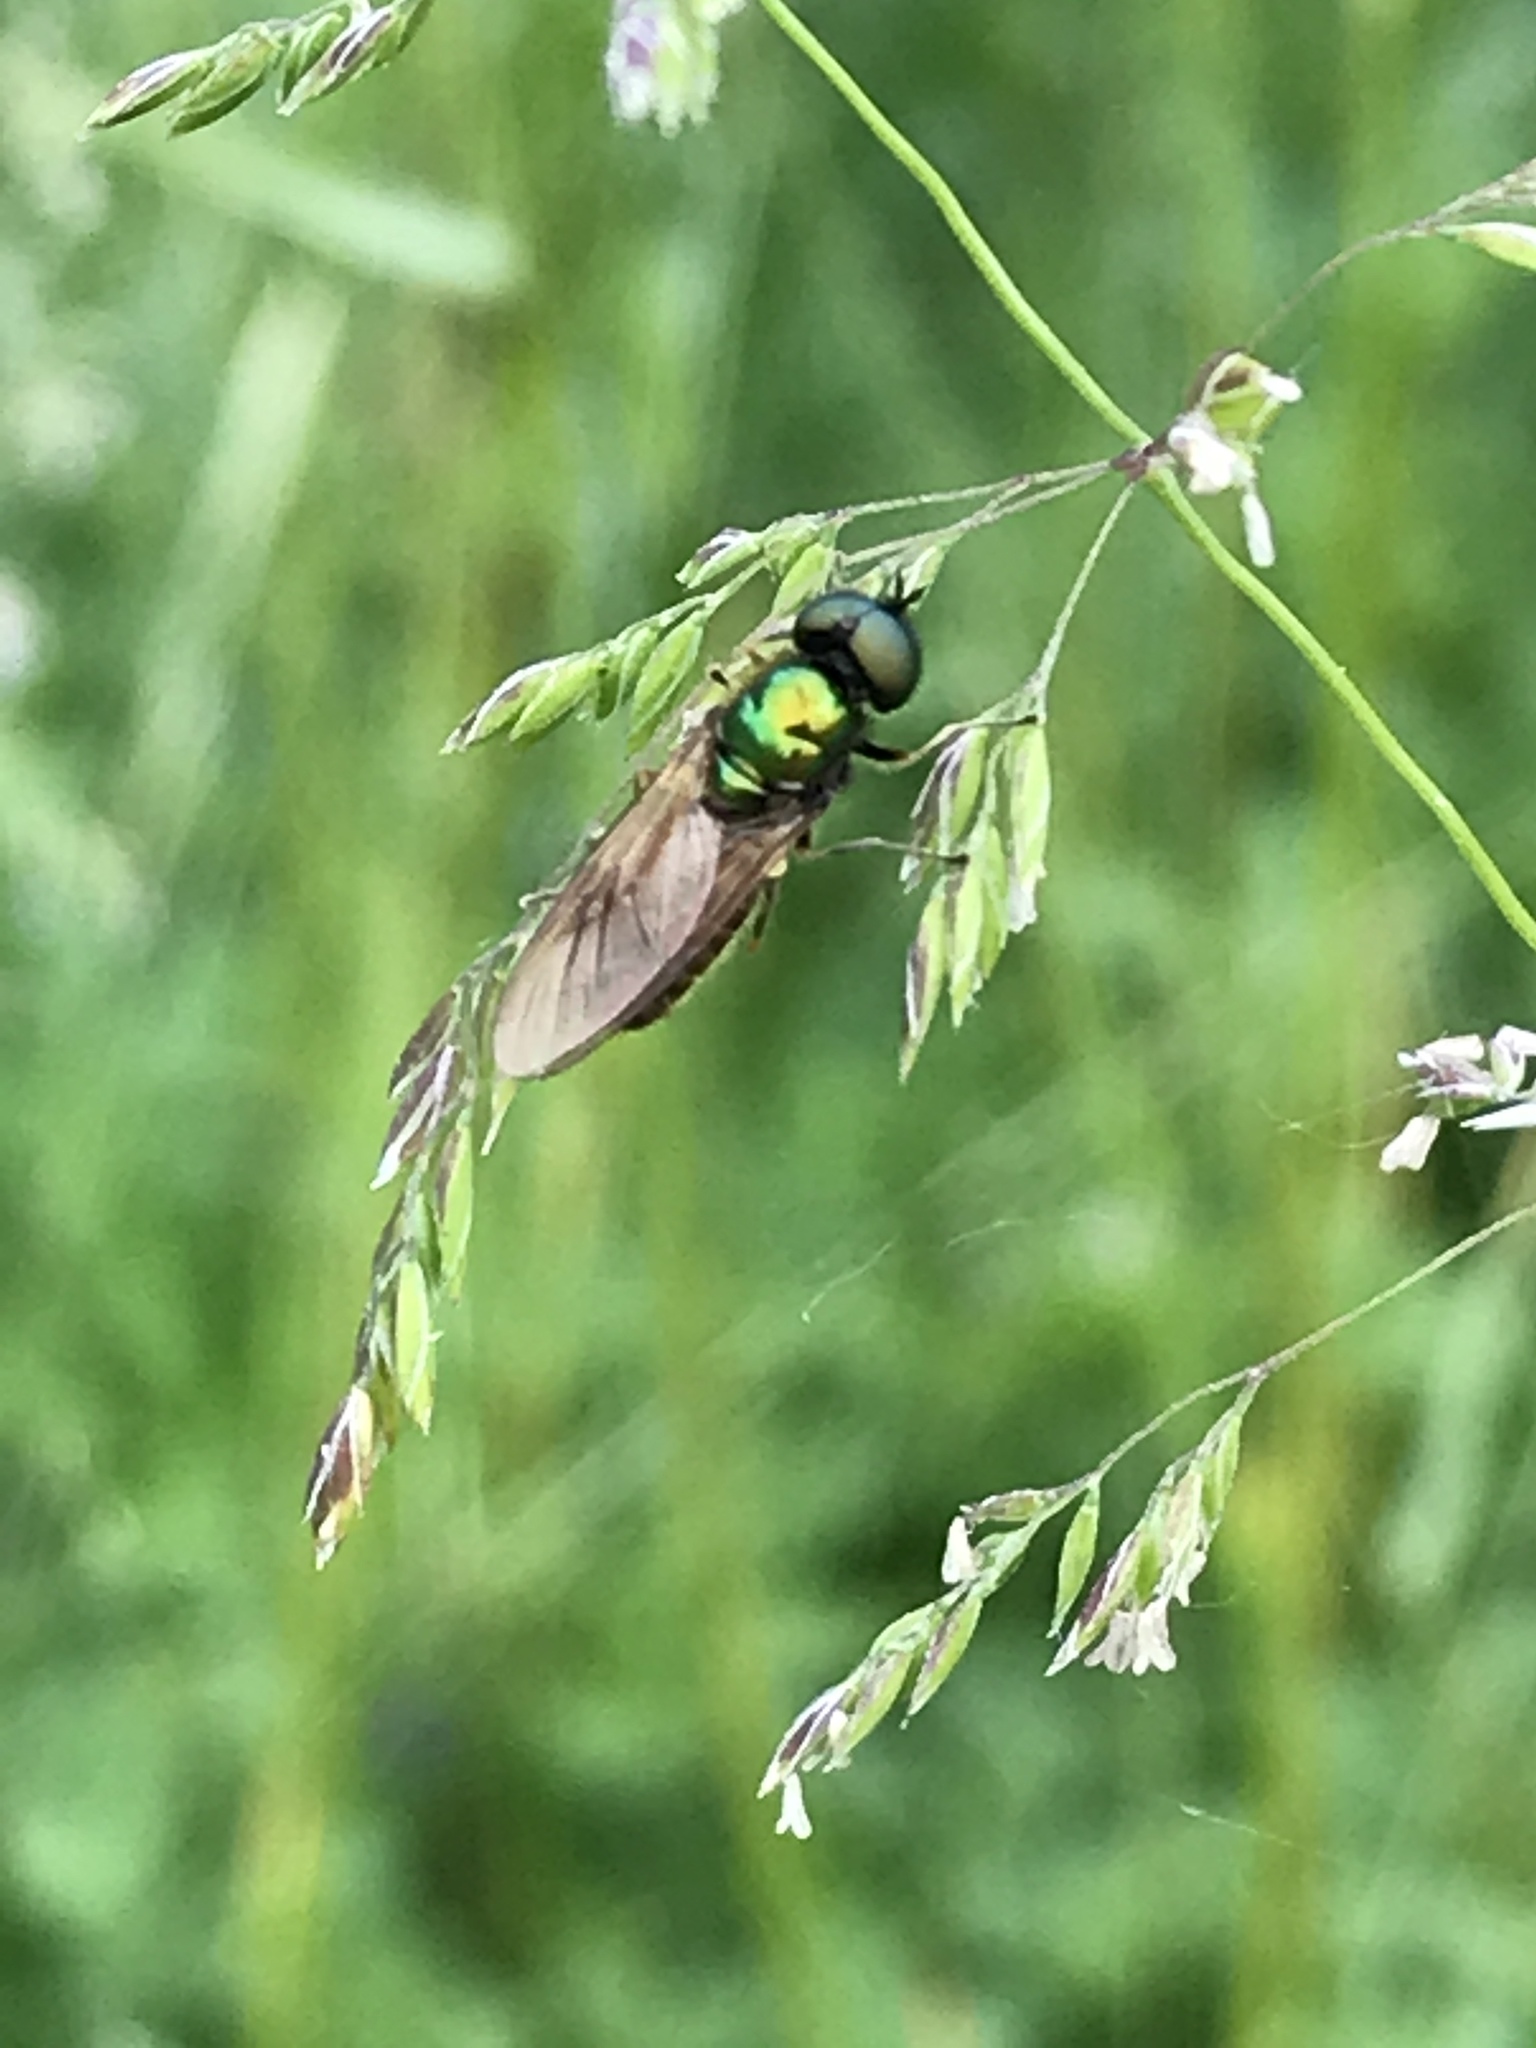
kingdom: Animalia
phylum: Arthropoda
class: Insecta
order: Diptera
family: Stratiomyidae
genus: Chloromyia
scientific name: Chloromyia formosa
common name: Soldier fly
